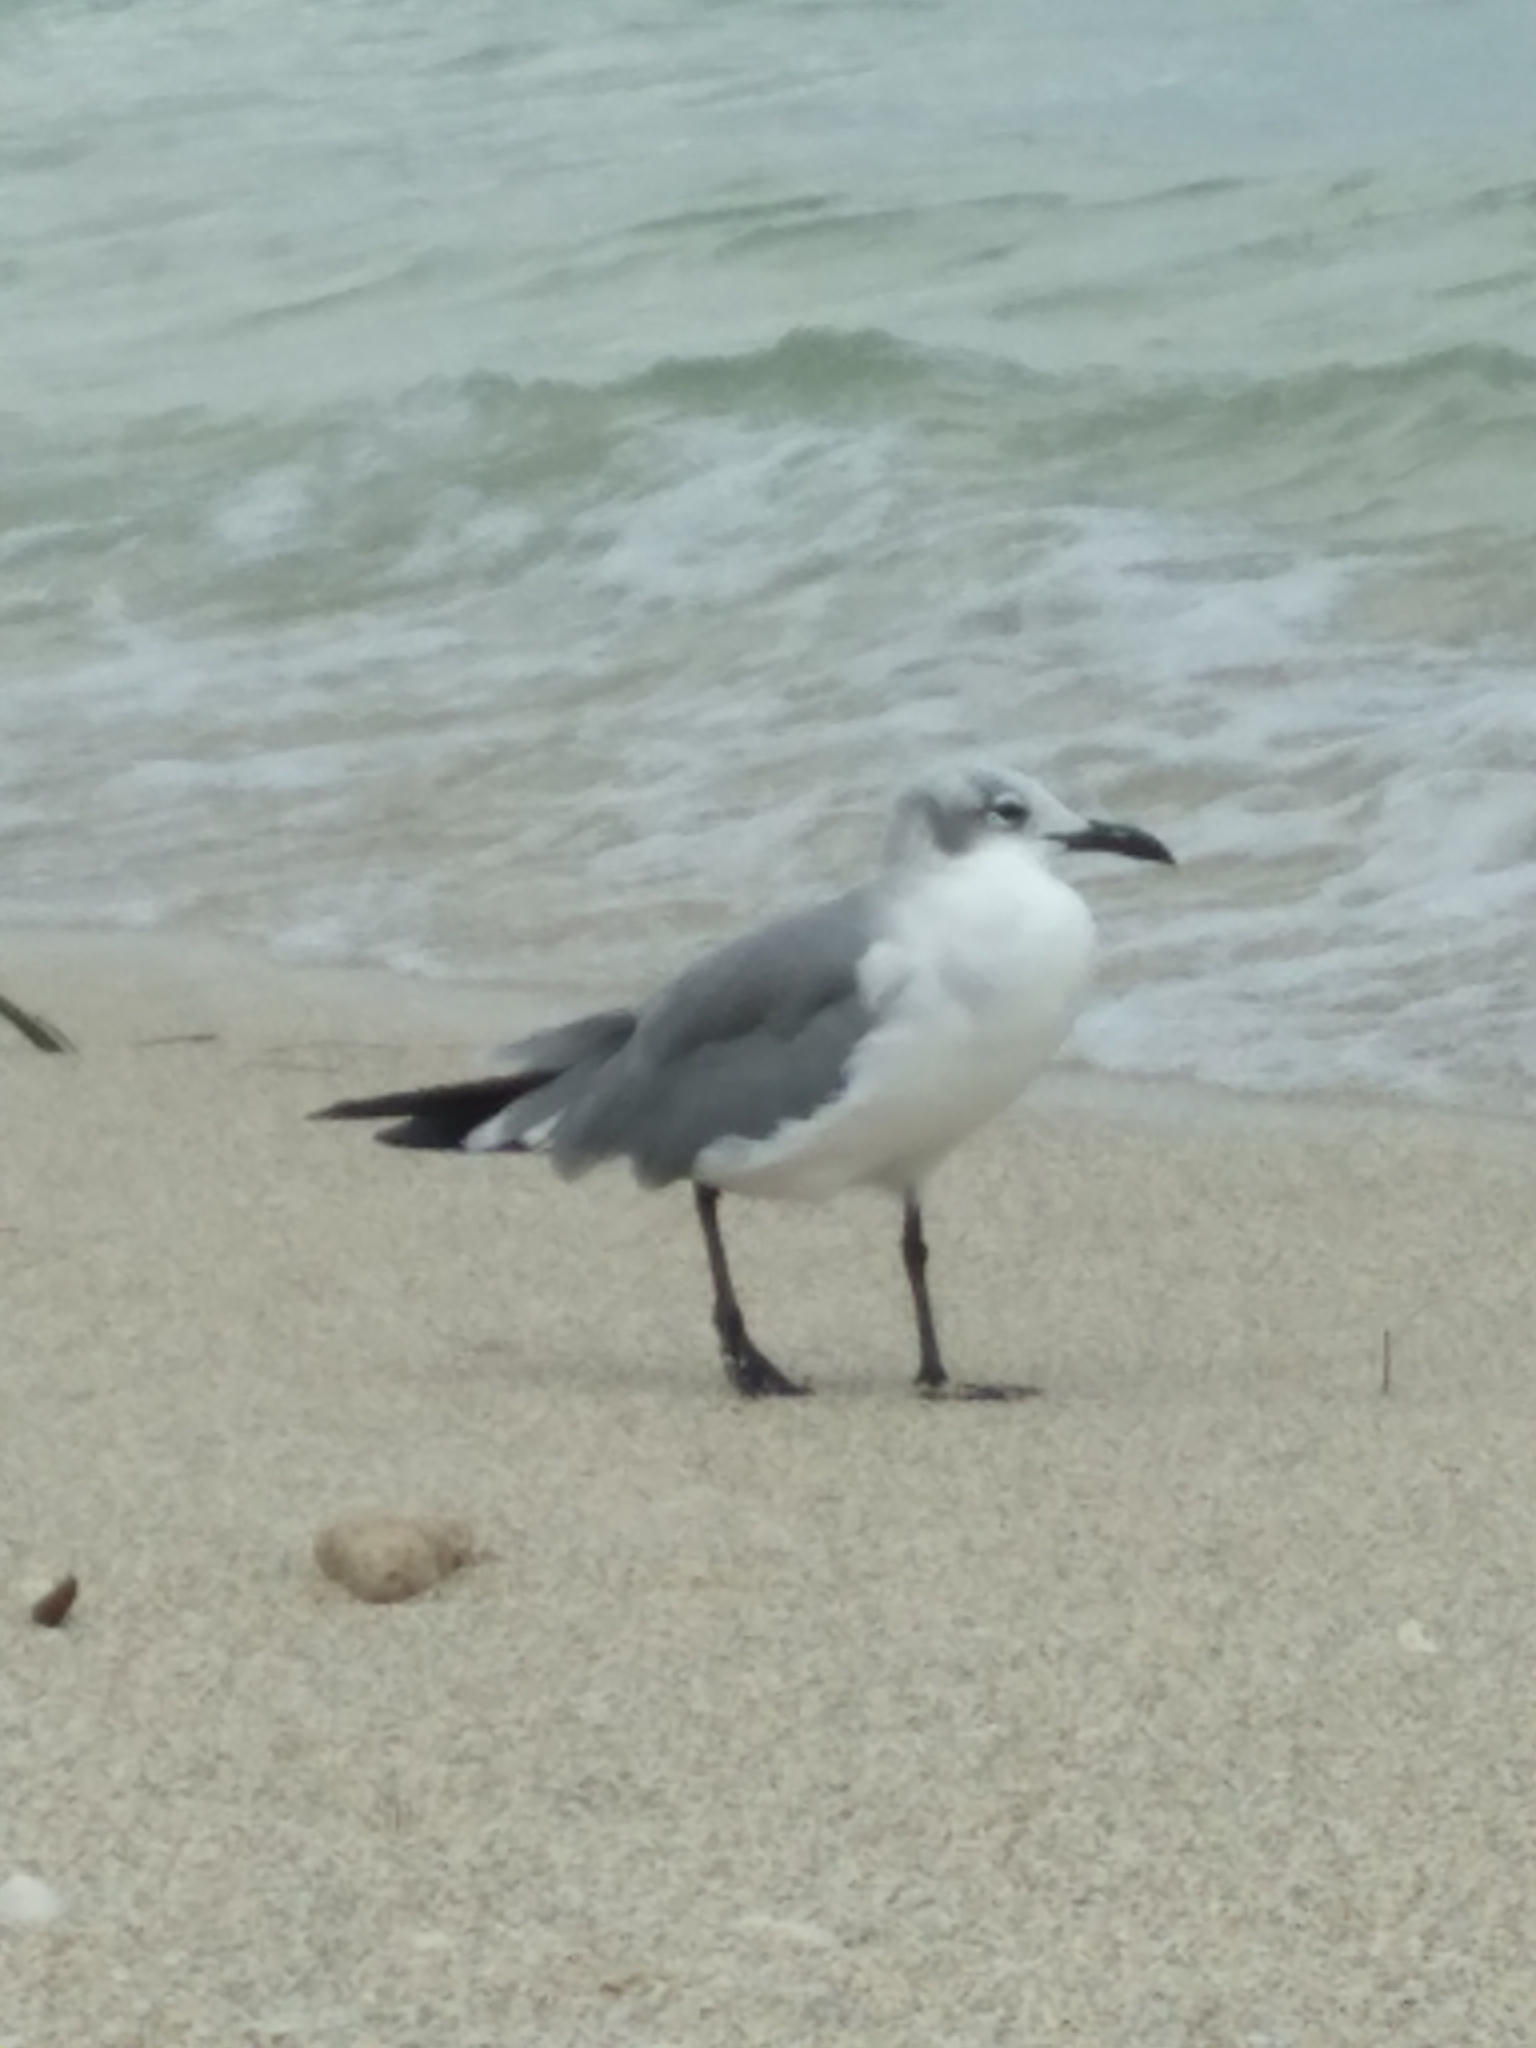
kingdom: Animalia
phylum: Chordata
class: Aves
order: Charadriiformes
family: Laridae
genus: Leucophaeus
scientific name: Leucophaeus atricilla
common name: Laughing gull
